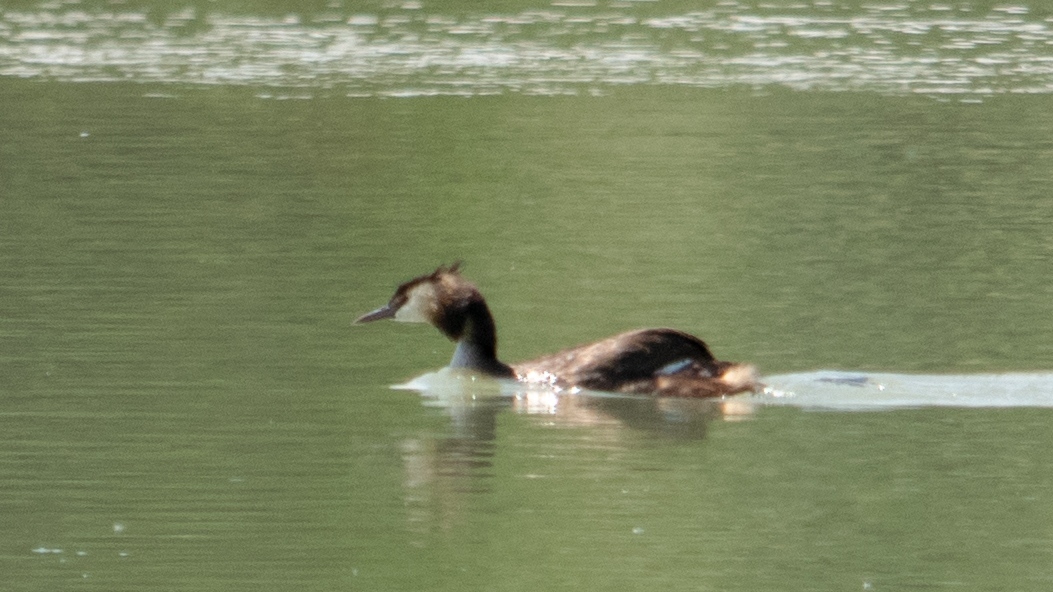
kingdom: Animalia
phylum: Chordata
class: Aves
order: Podicipediformes
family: Podicipedidae
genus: Podiceps
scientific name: Podiceps cristatus
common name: Great crested grebe
